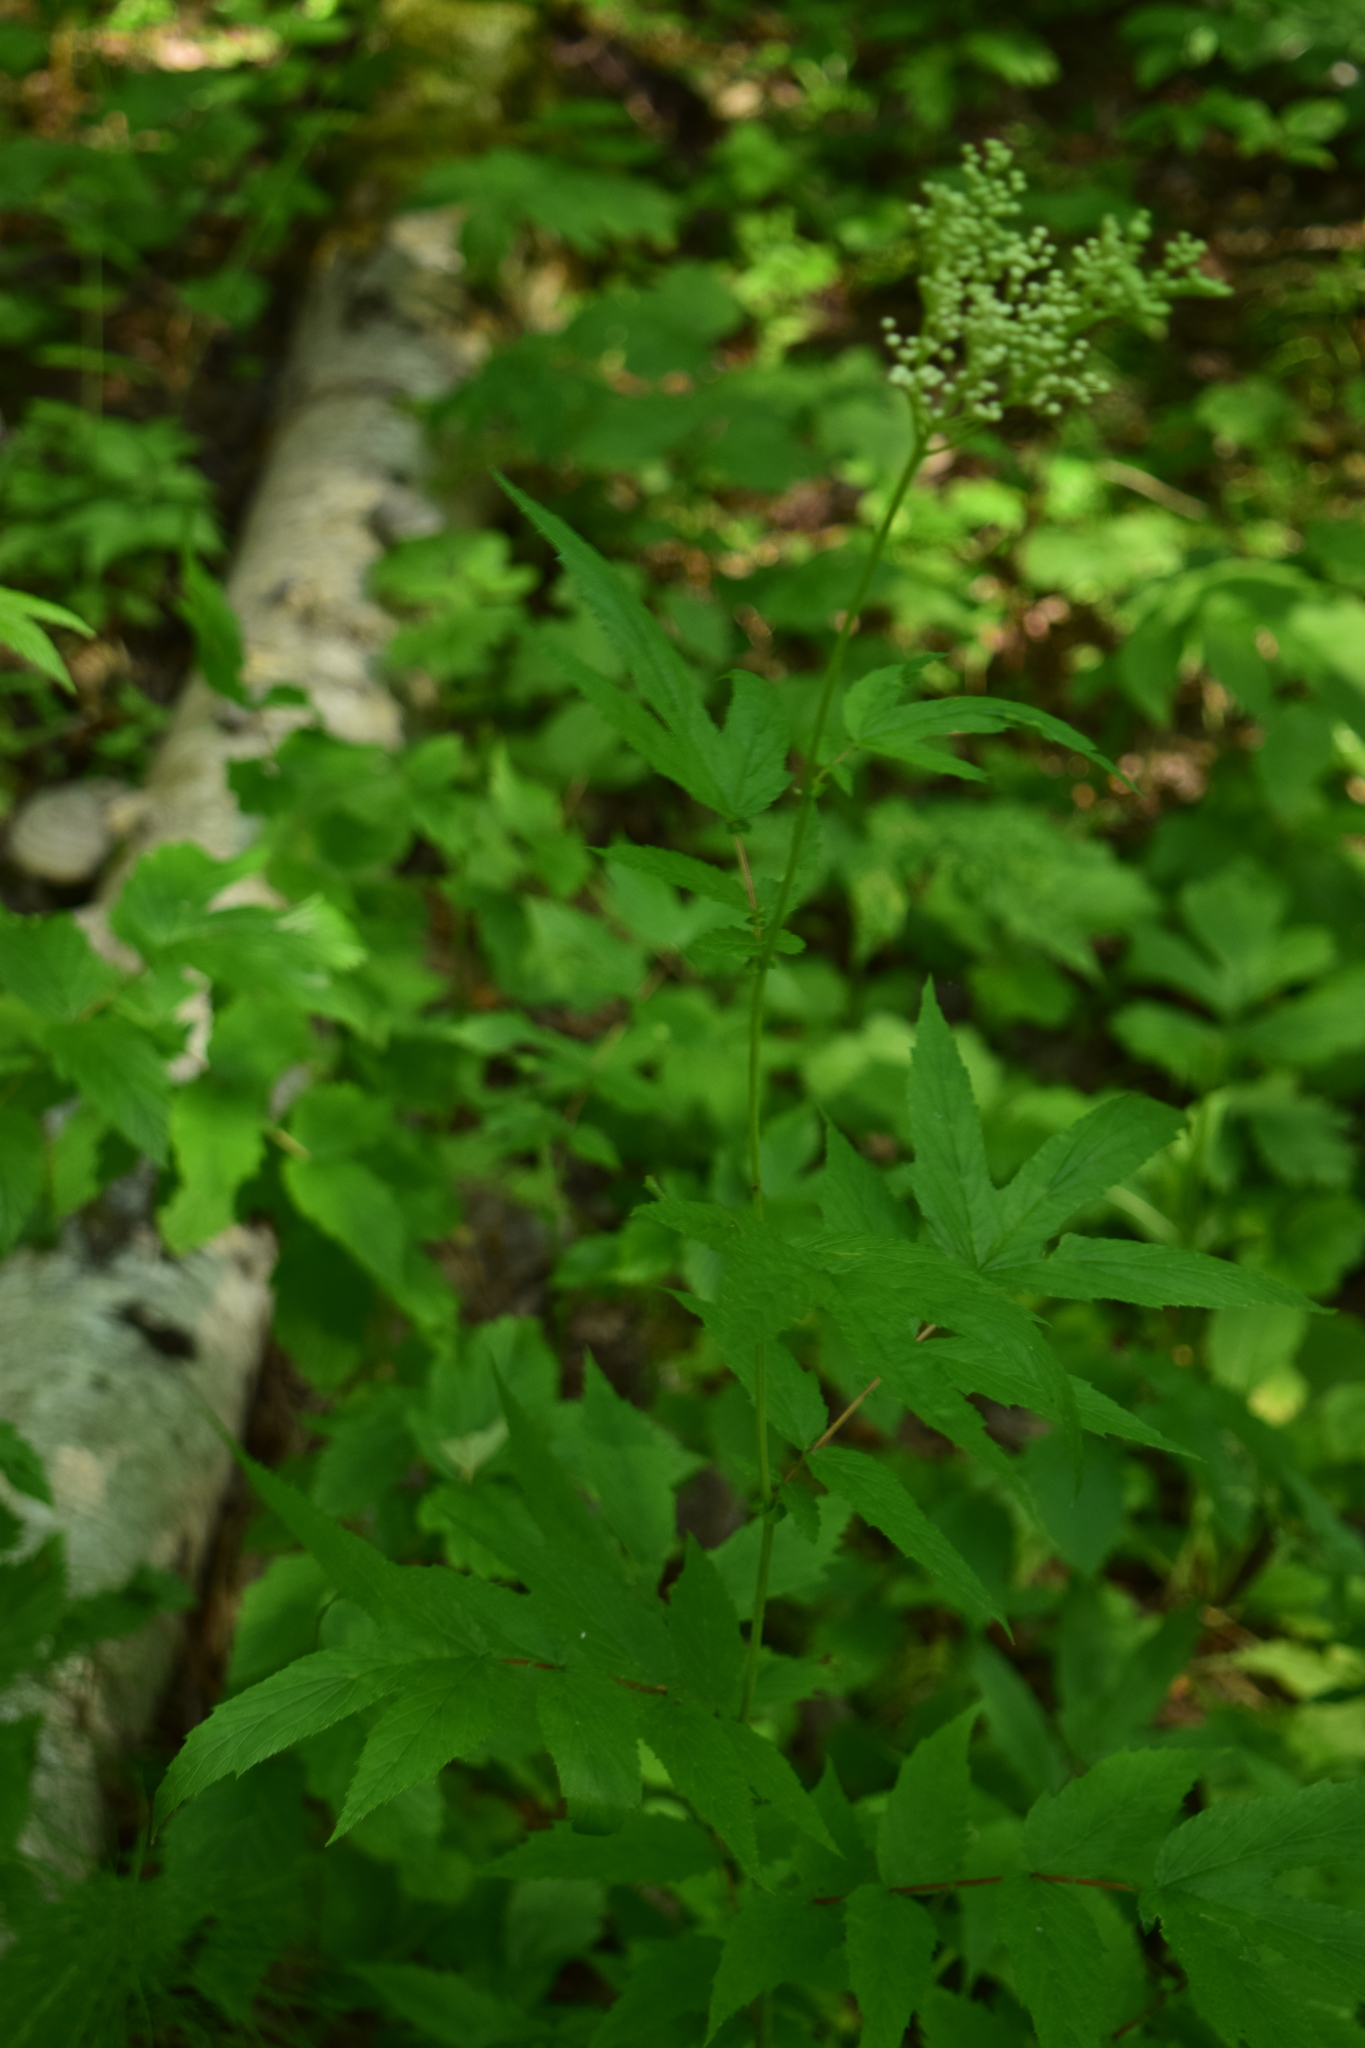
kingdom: Plantae
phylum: Tracheophyta
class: Magnoliopsida
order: Rosales
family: Rosaceae
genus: Filipendula
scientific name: Filipendula ulmaria
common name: Meadowsweet
